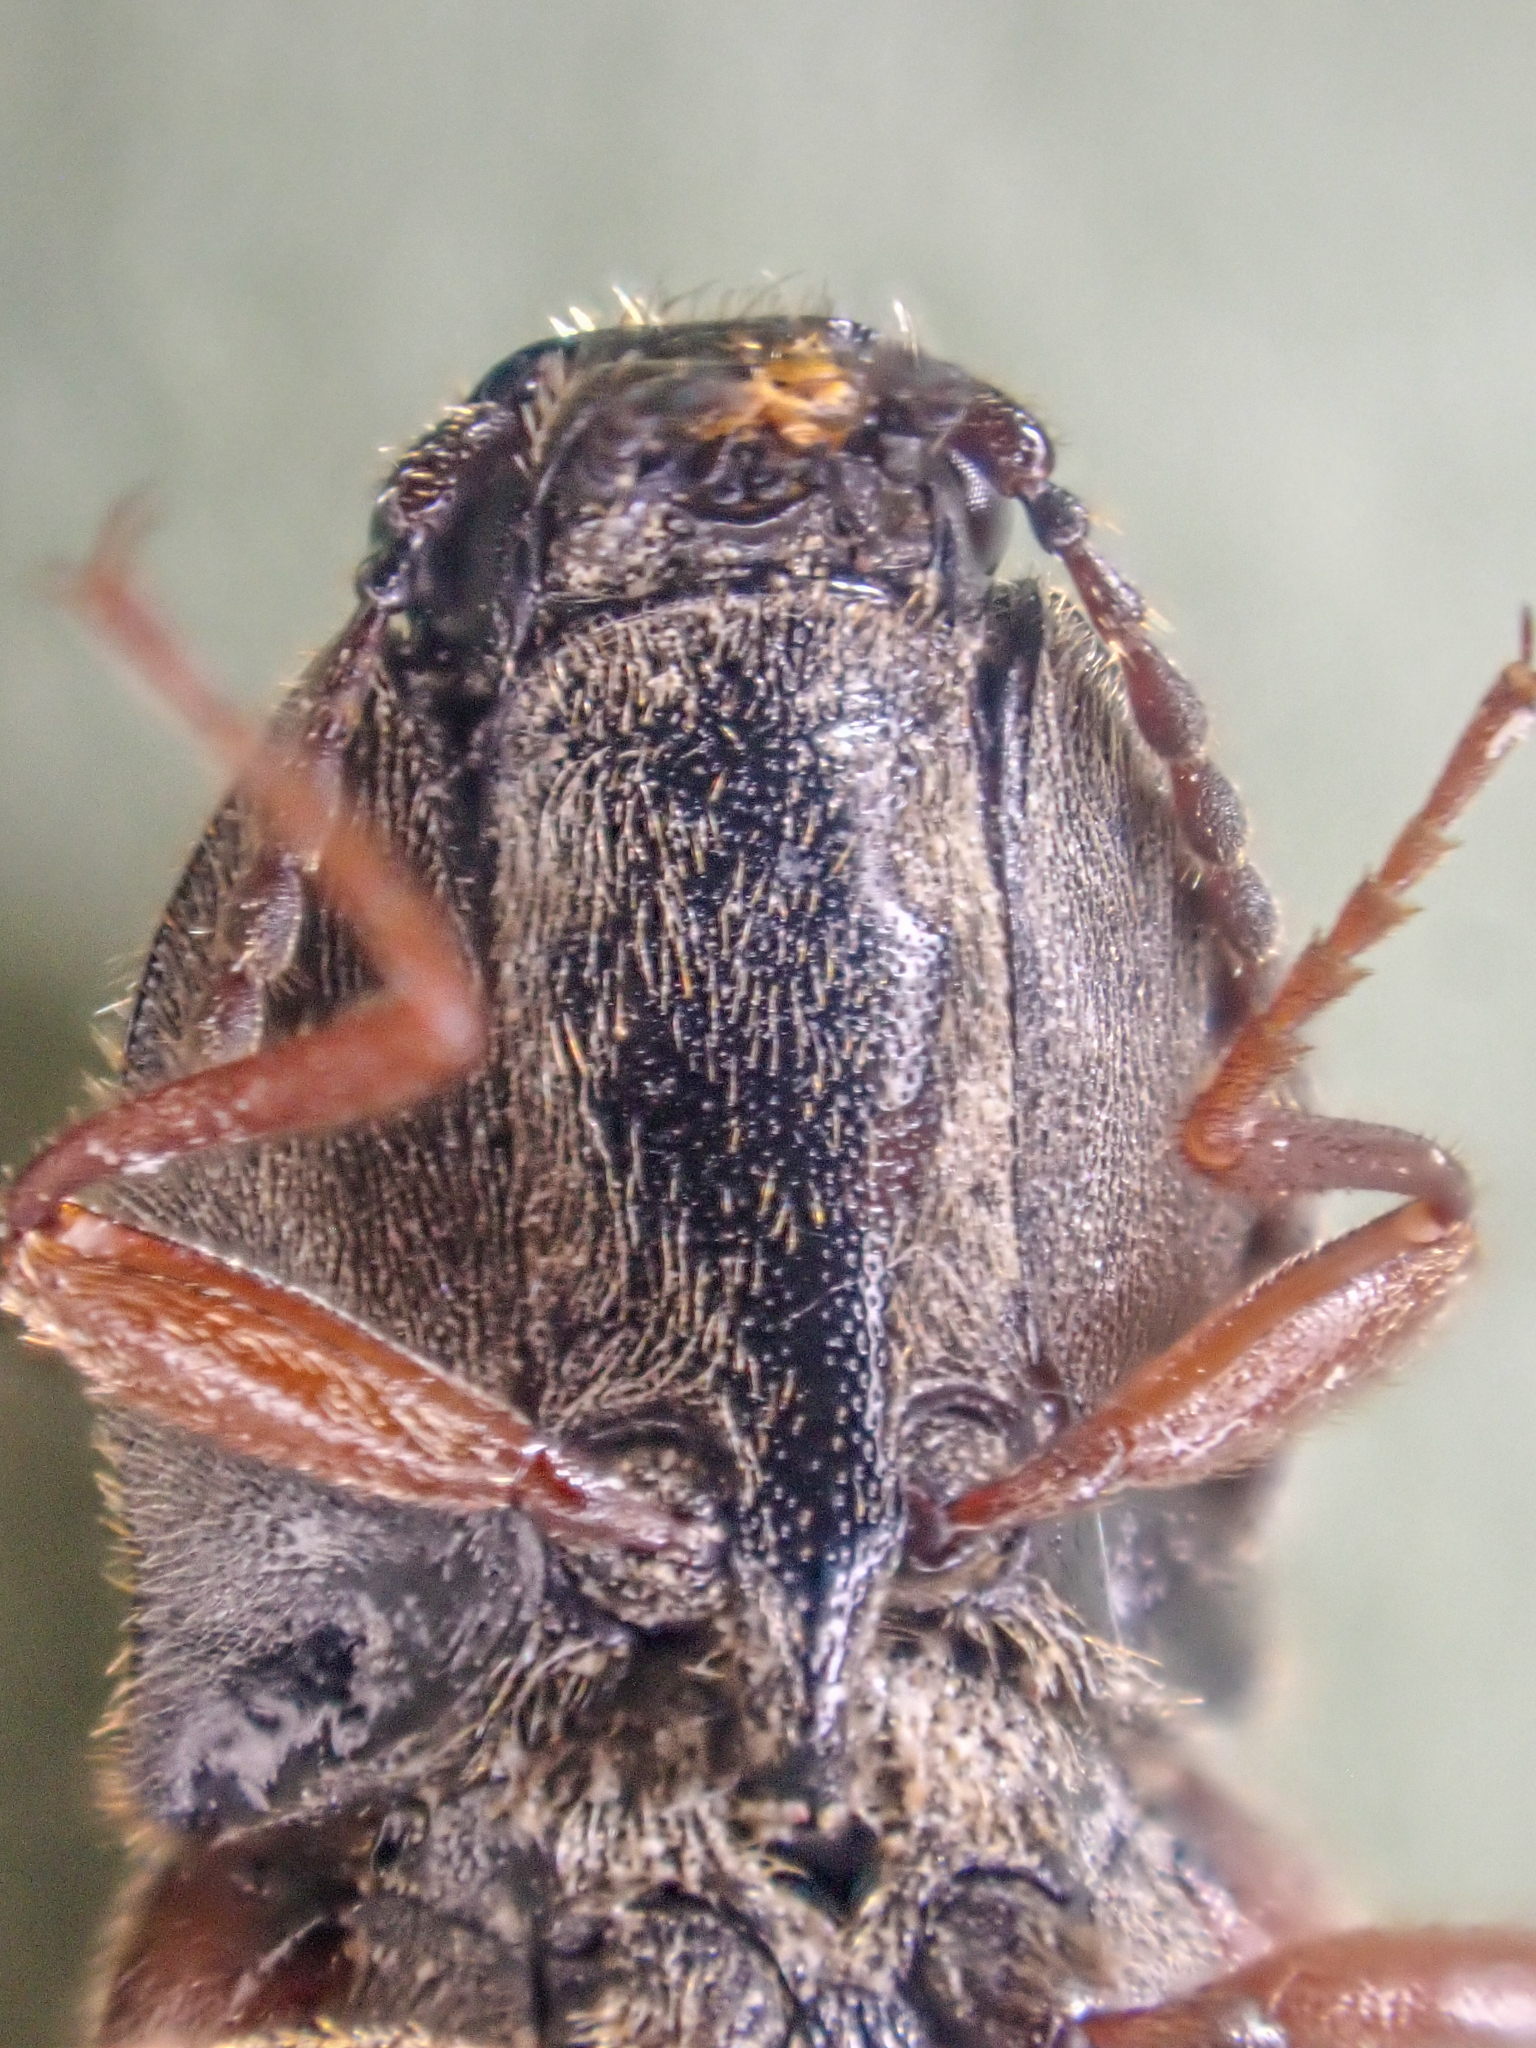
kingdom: Animalia
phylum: Arthropoda
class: Insecta
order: Coleoptera
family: Elateridae
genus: Prosternon
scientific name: Prosternon bombycinum
